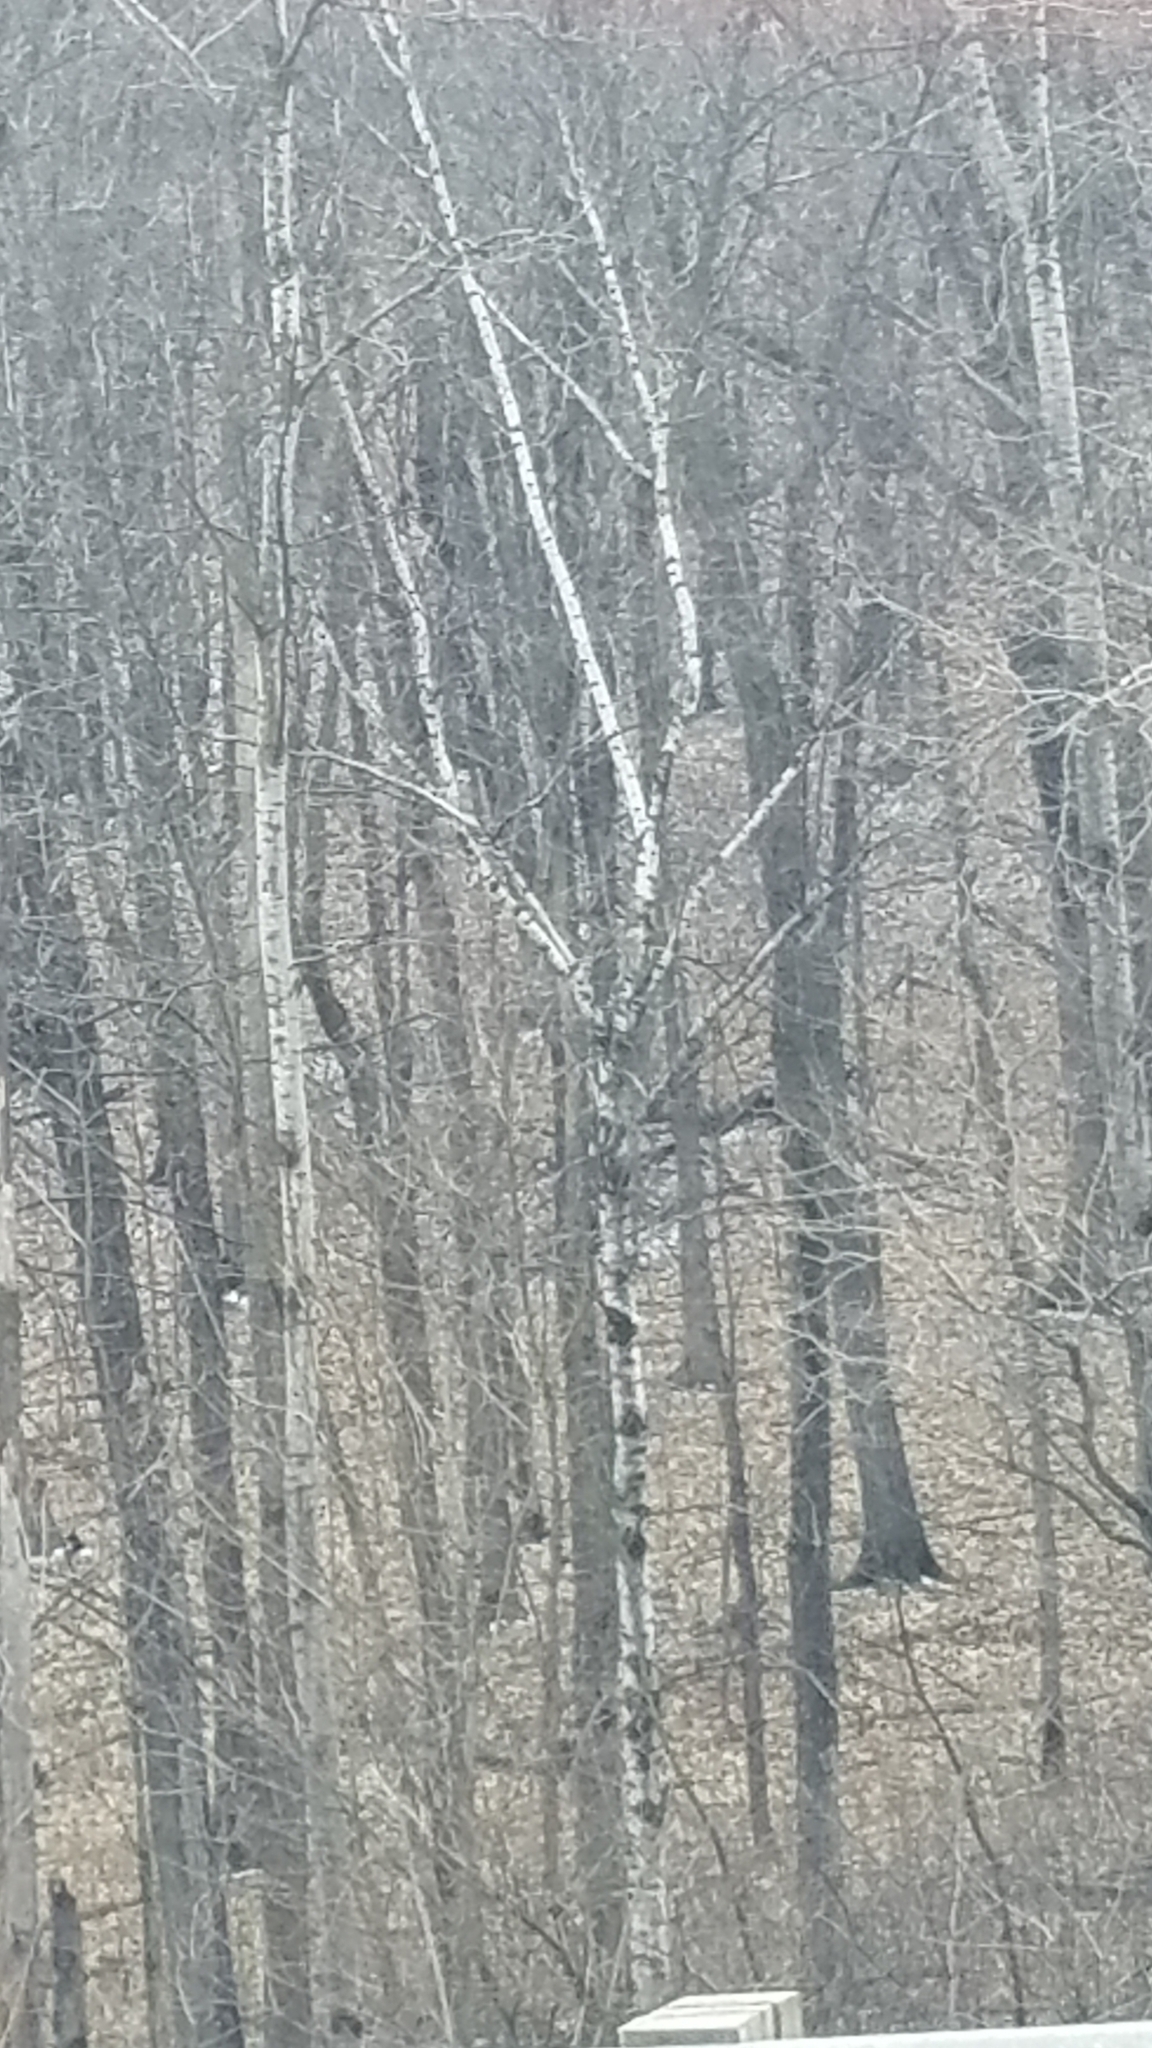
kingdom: Plantae
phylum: Tracheophyta
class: Magnoliopsida
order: Malpighiales
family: Salicaceae
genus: Populus
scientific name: Populus tremuloides
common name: Quaking aspen
